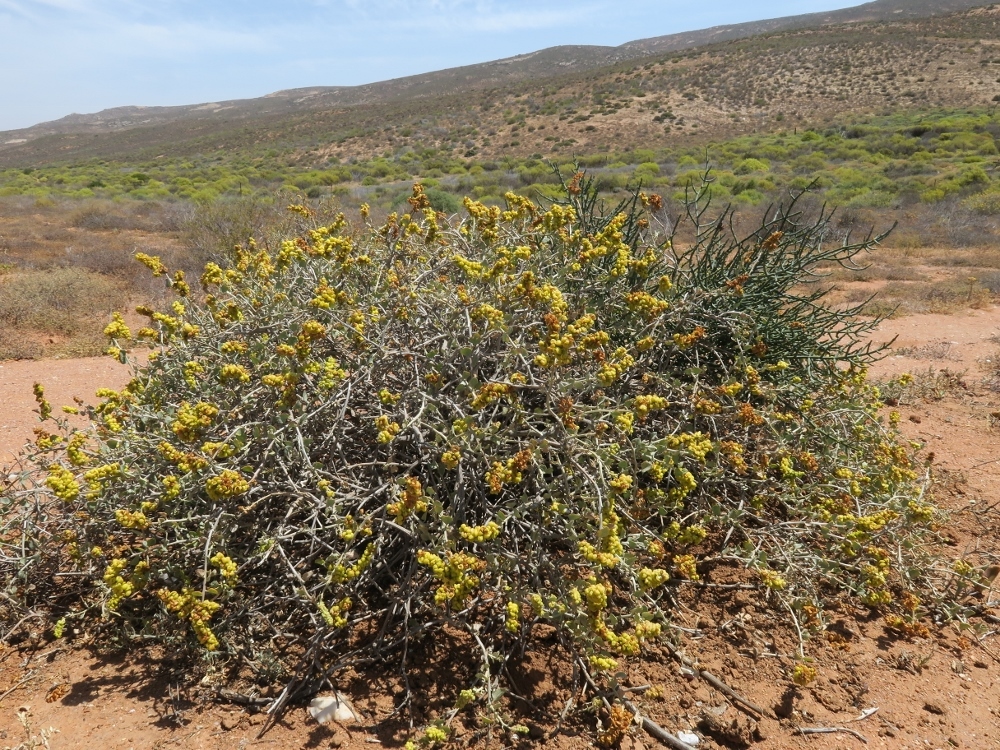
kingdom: Plantae
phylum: Tracheophyta
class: Magnoliopsida
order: Caryophyllales
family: Amaranthaceae
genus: Exomis
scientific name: Exomis albicans
